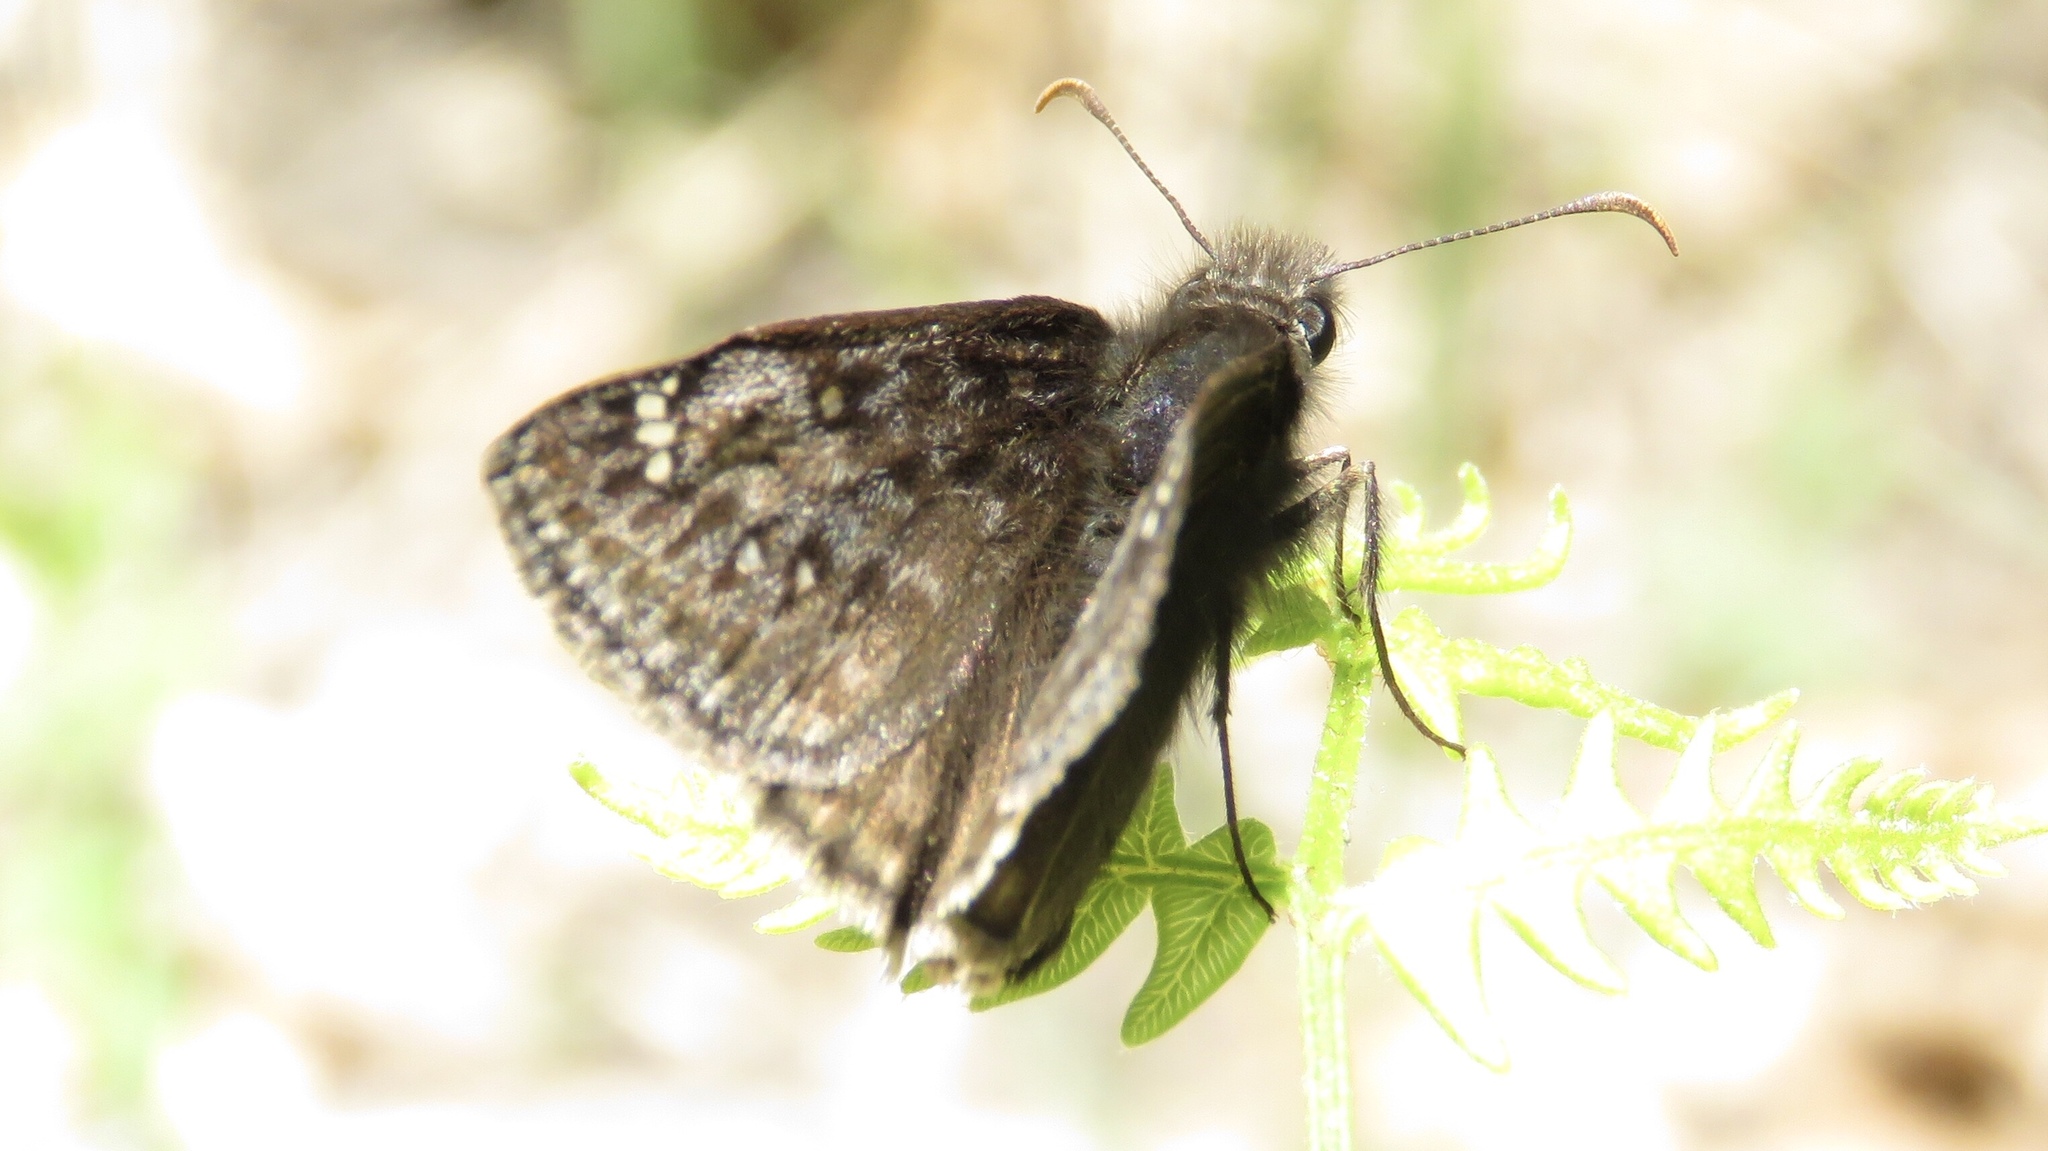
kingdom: Animalia
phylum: Arthropoda
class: Insecta
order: Lepidoptera
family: Hesperiidae
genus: Erynnis
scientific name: Erynnis juvenalis
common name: Juvenal's duskywing
